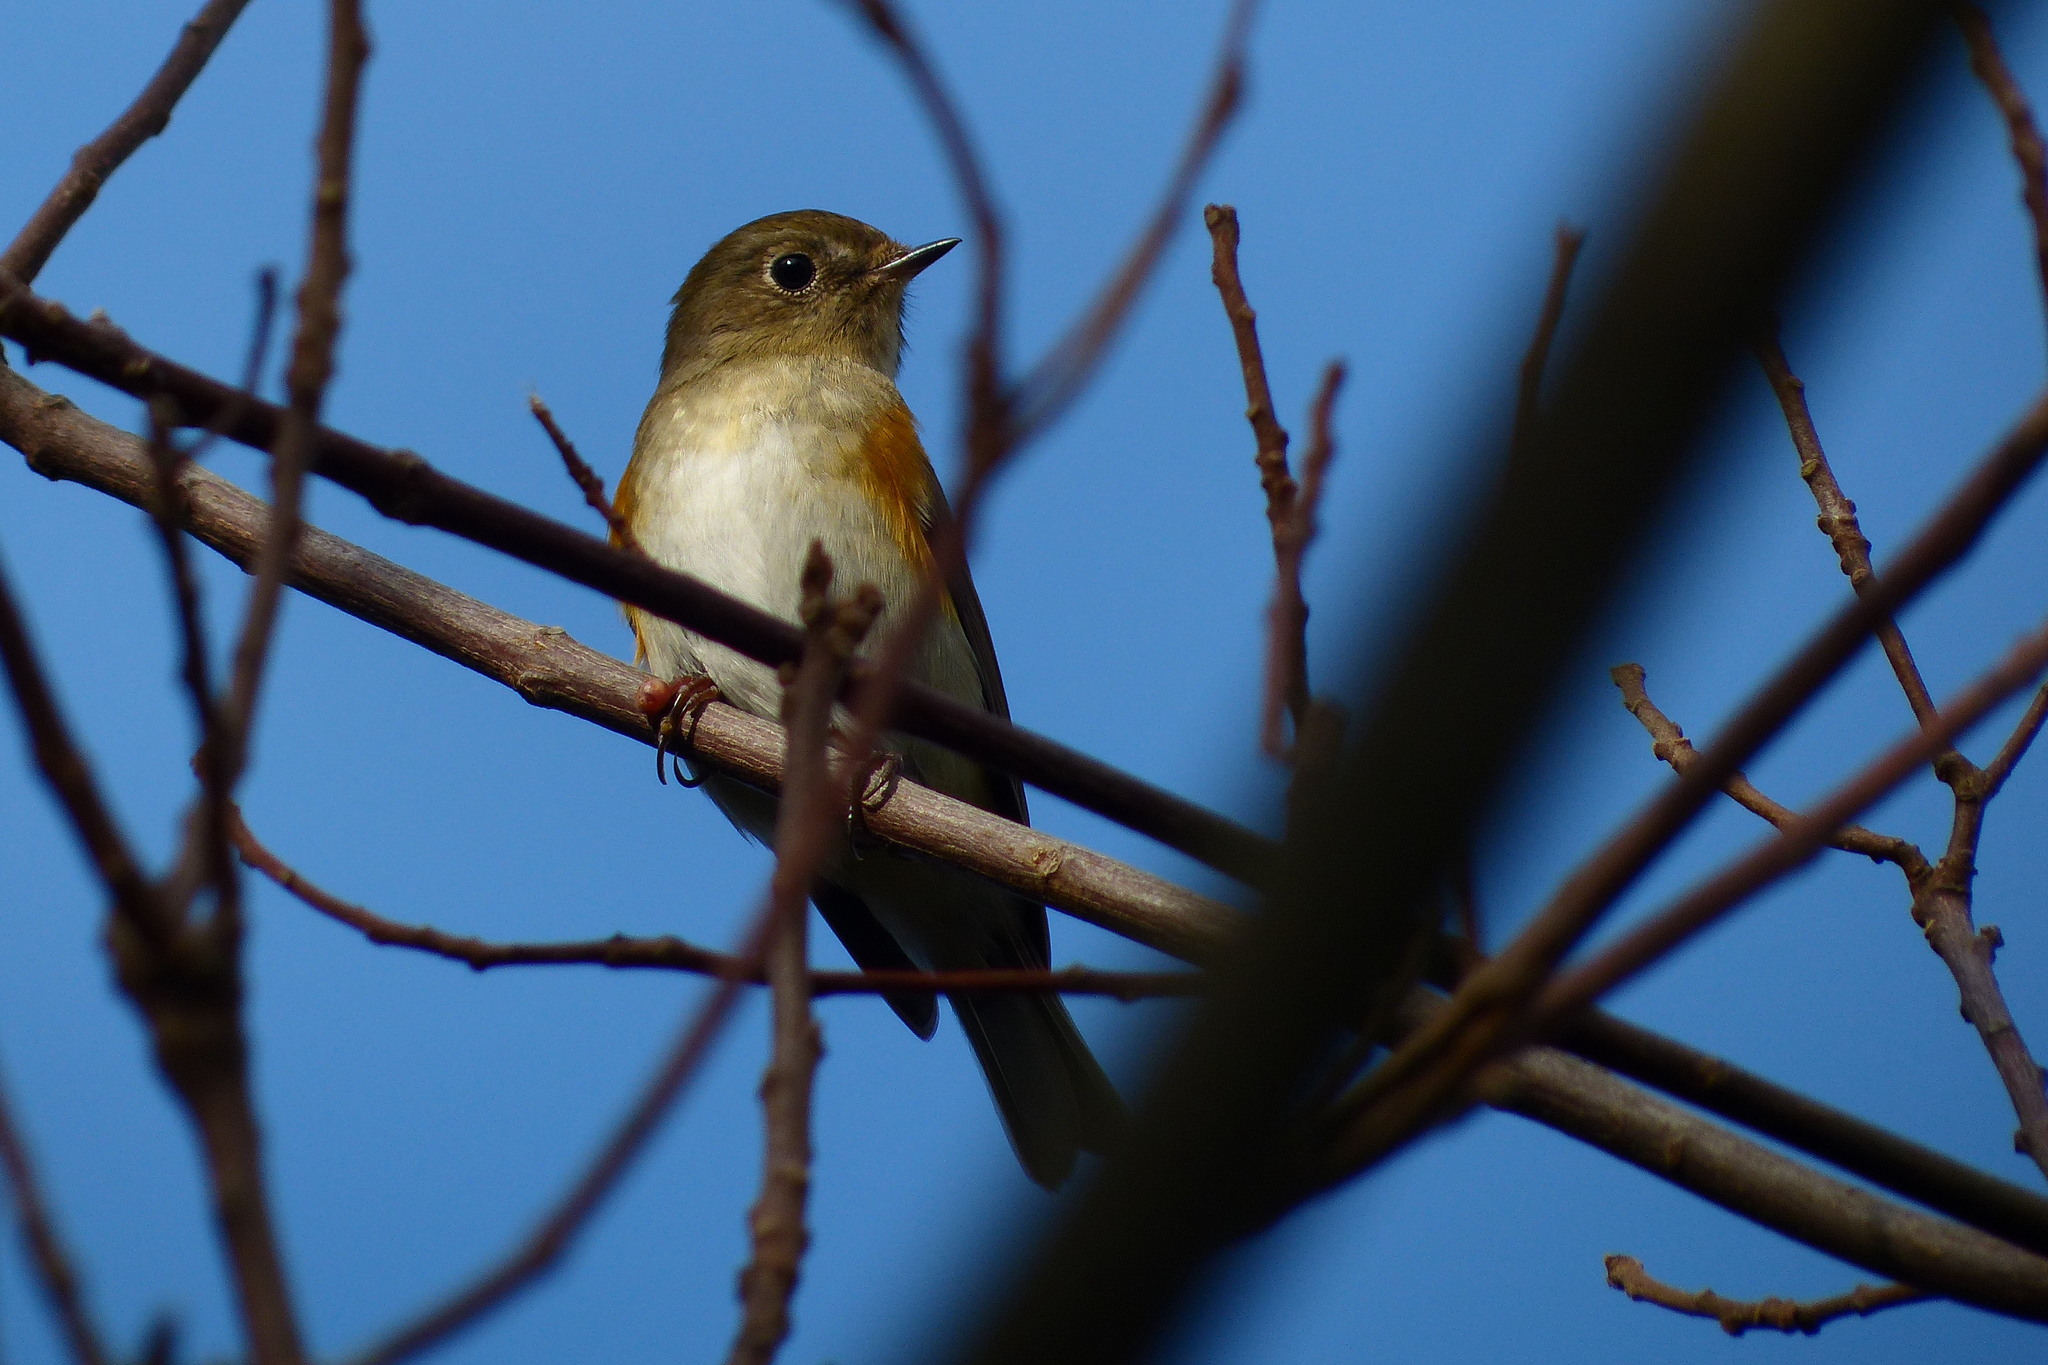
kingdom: Animalia
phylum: Chordata
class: Aves
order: Passeriformes
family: Muscicapidae
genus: Tarsiger
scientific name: Tarsiger cyanurus
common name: Red-flanked bluetail
